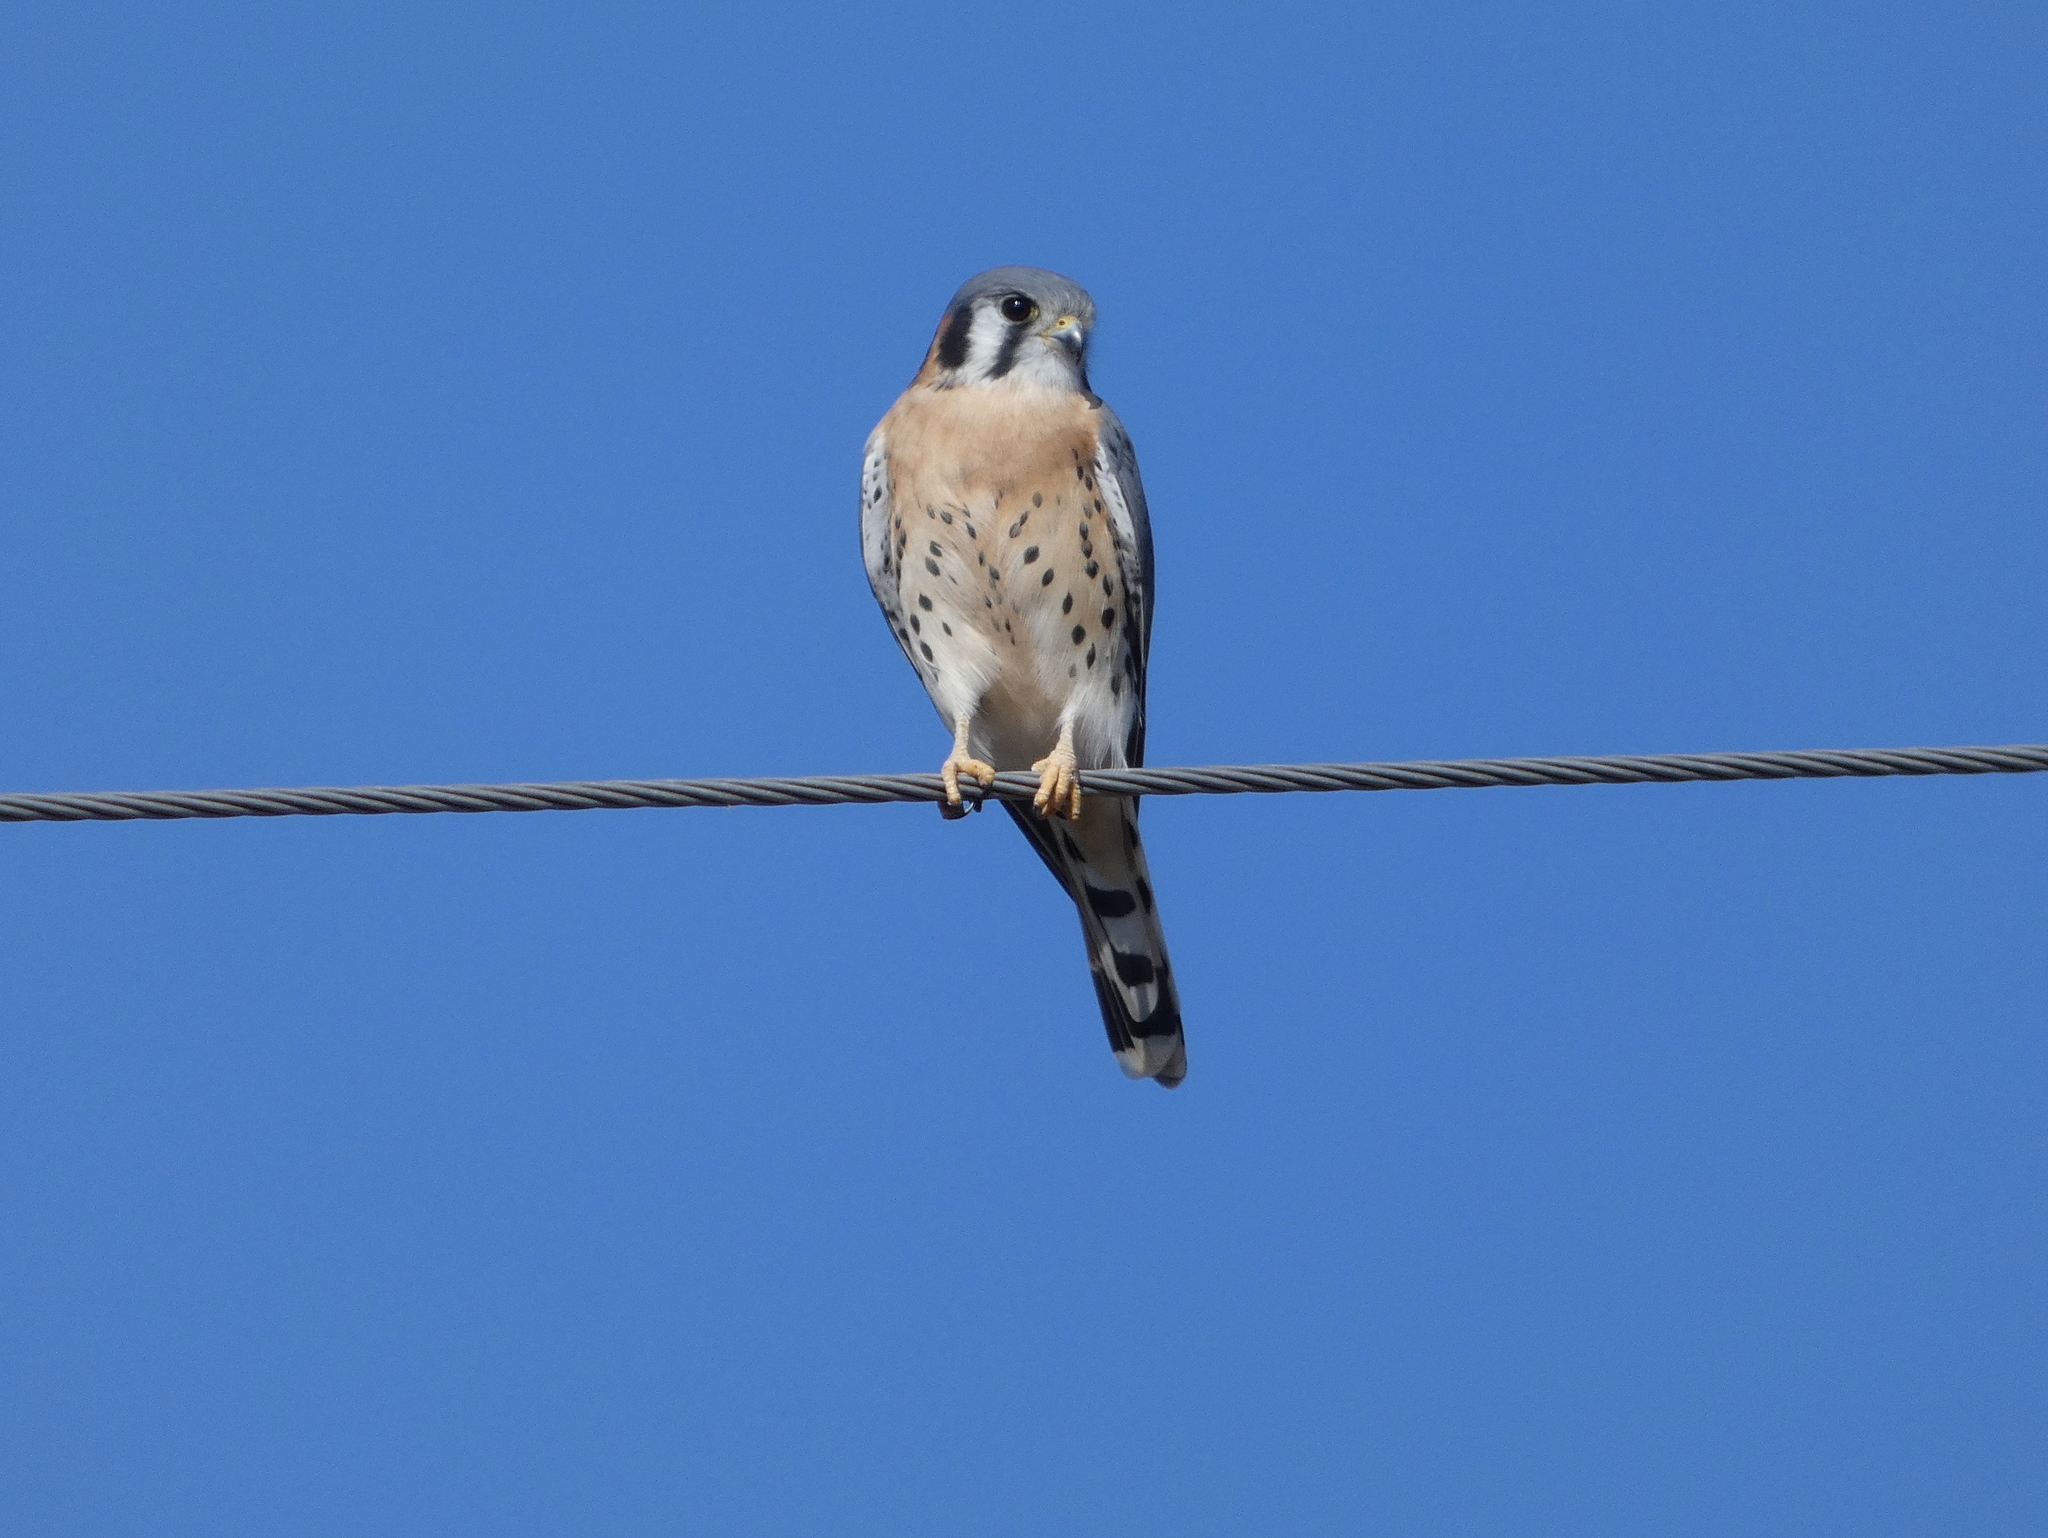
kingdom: Animalia
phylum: Chordata
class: Aves
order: Falconiformes
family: Falconidae
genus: Falco
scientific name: Falco sparverius
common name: American kestrel
